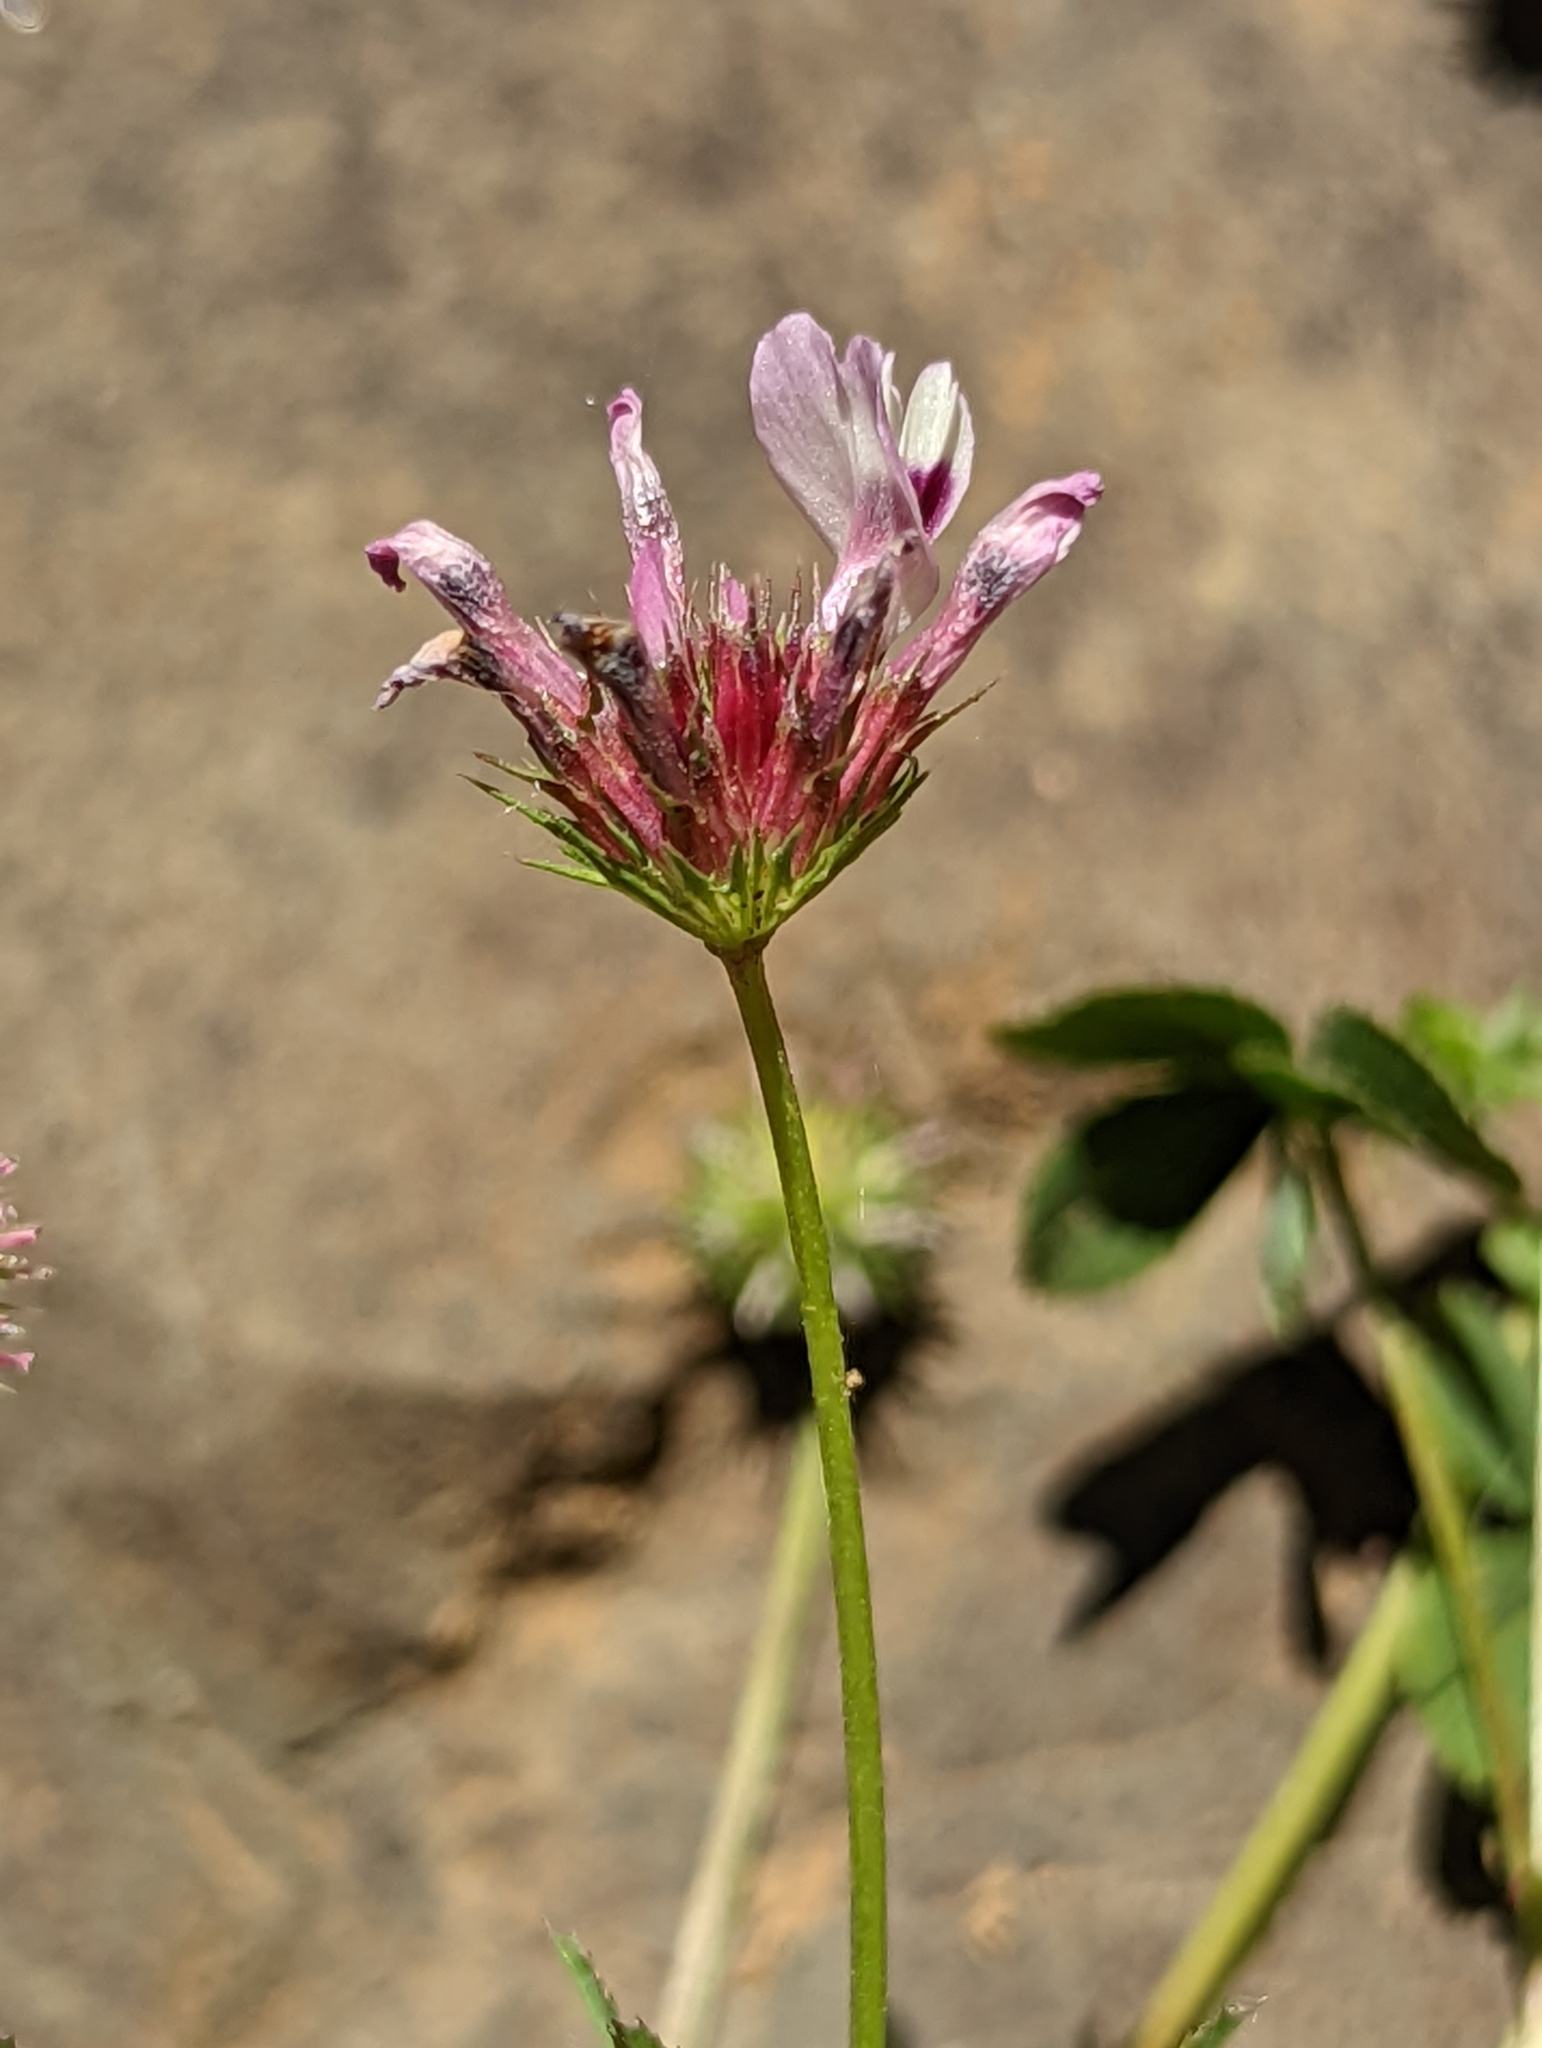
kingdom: Plantae
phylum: Tracheophyta
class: Magnoliopsida
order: Fabales
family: Fabaceae
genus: Trifolium
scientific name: Trifolium willdenovii
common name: Tomcat clover
